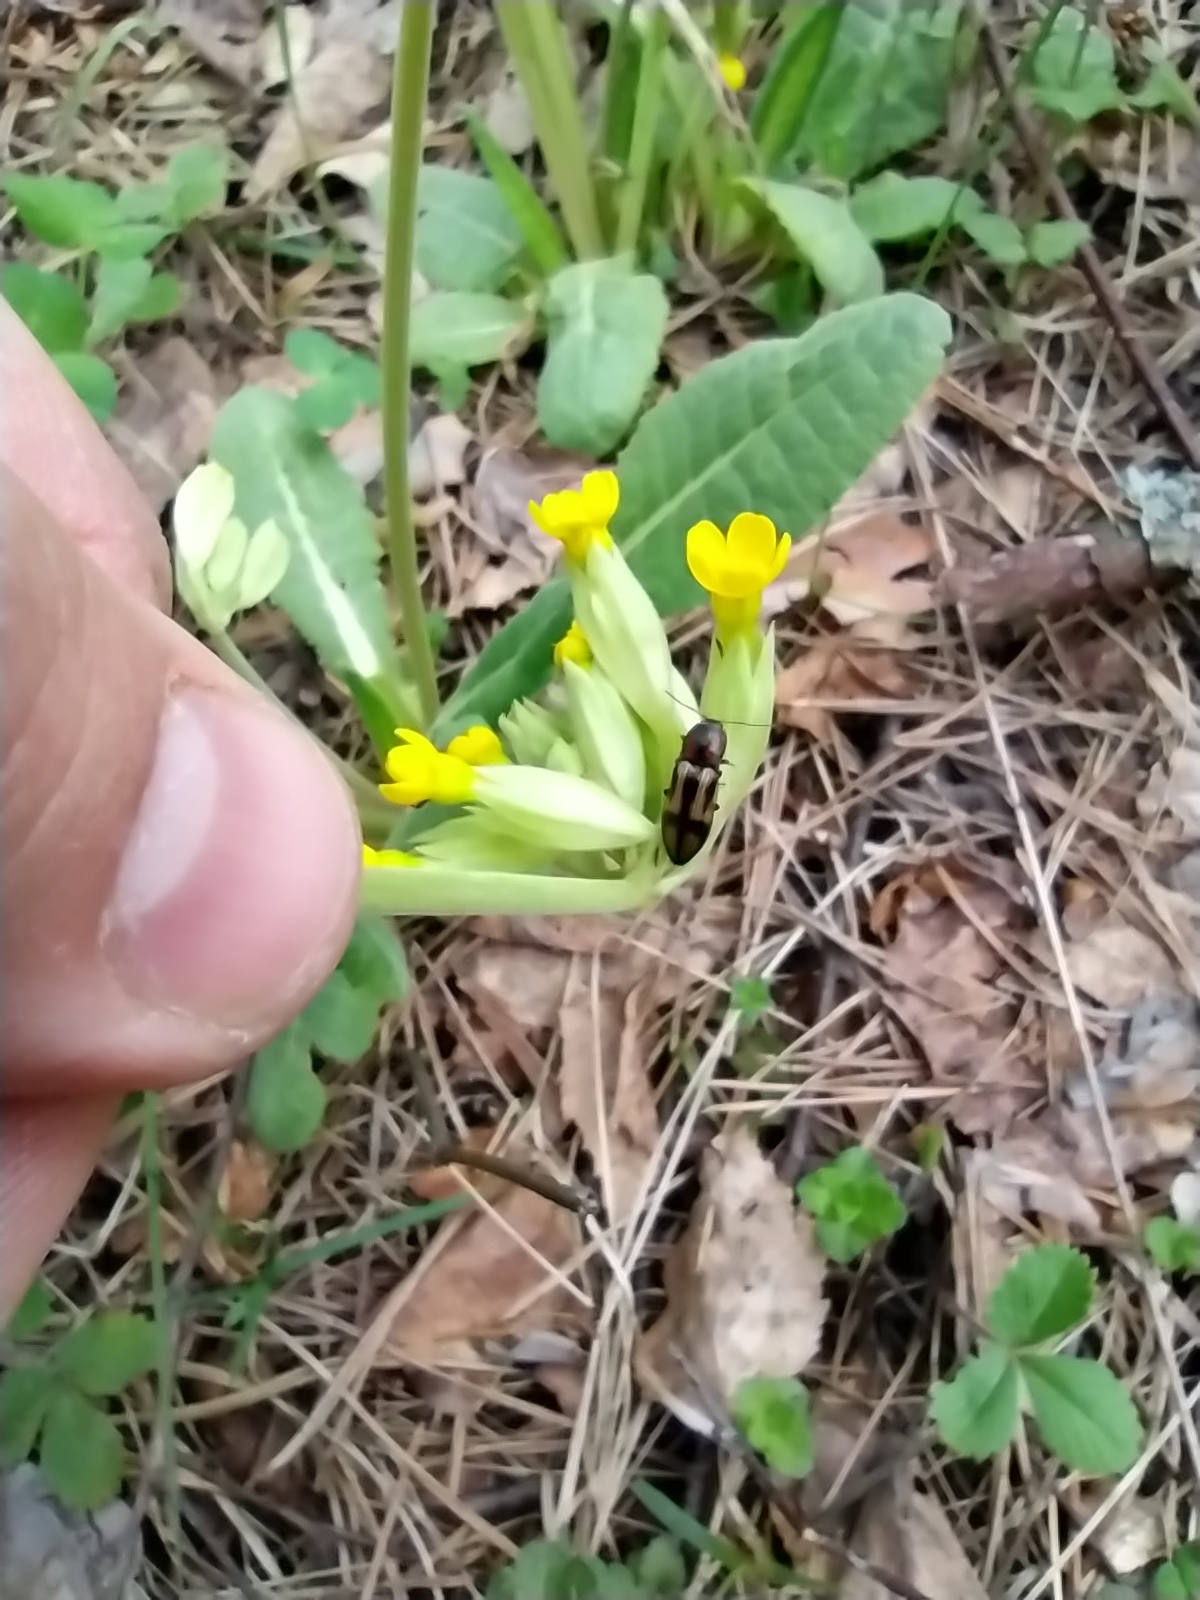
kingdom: Animalia
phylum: Arthropoda
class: Insecta
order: Coleoptera
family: Elateridae
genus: Selatosomus
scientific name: Selatosomus cruciatus
